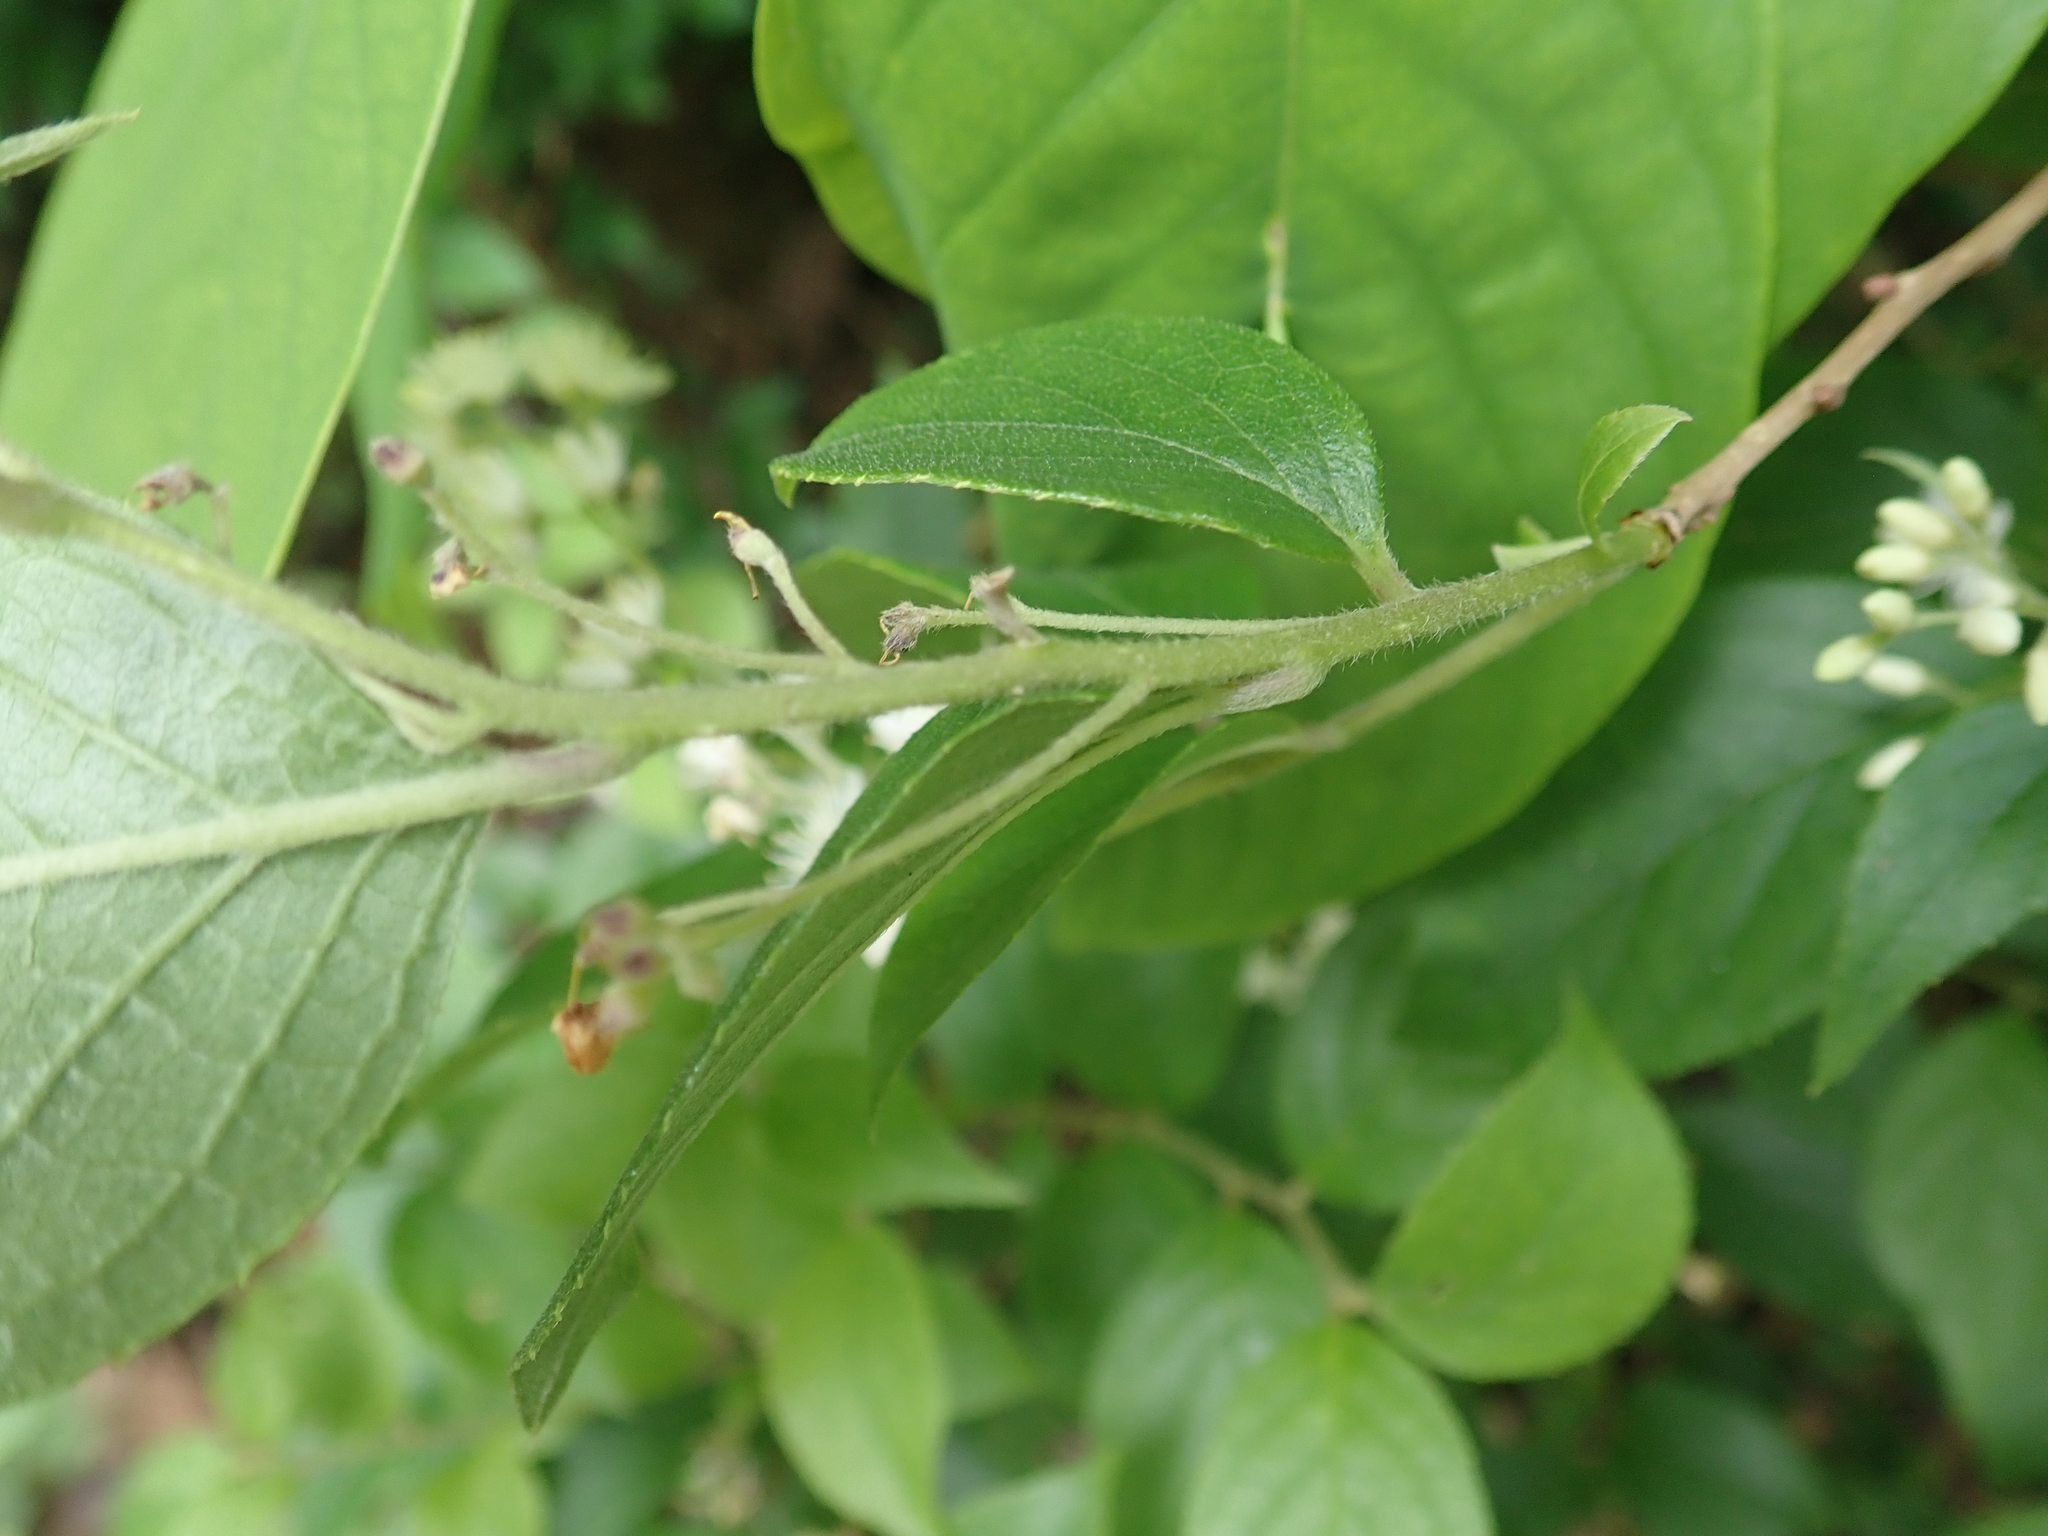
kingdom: Plantae
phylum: Tracheophyta
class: Magnoliopsida
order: Ericales
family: Symplocaceae
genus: Symplocos
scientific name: Symplocos paniculata
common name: Sapphire-berry
